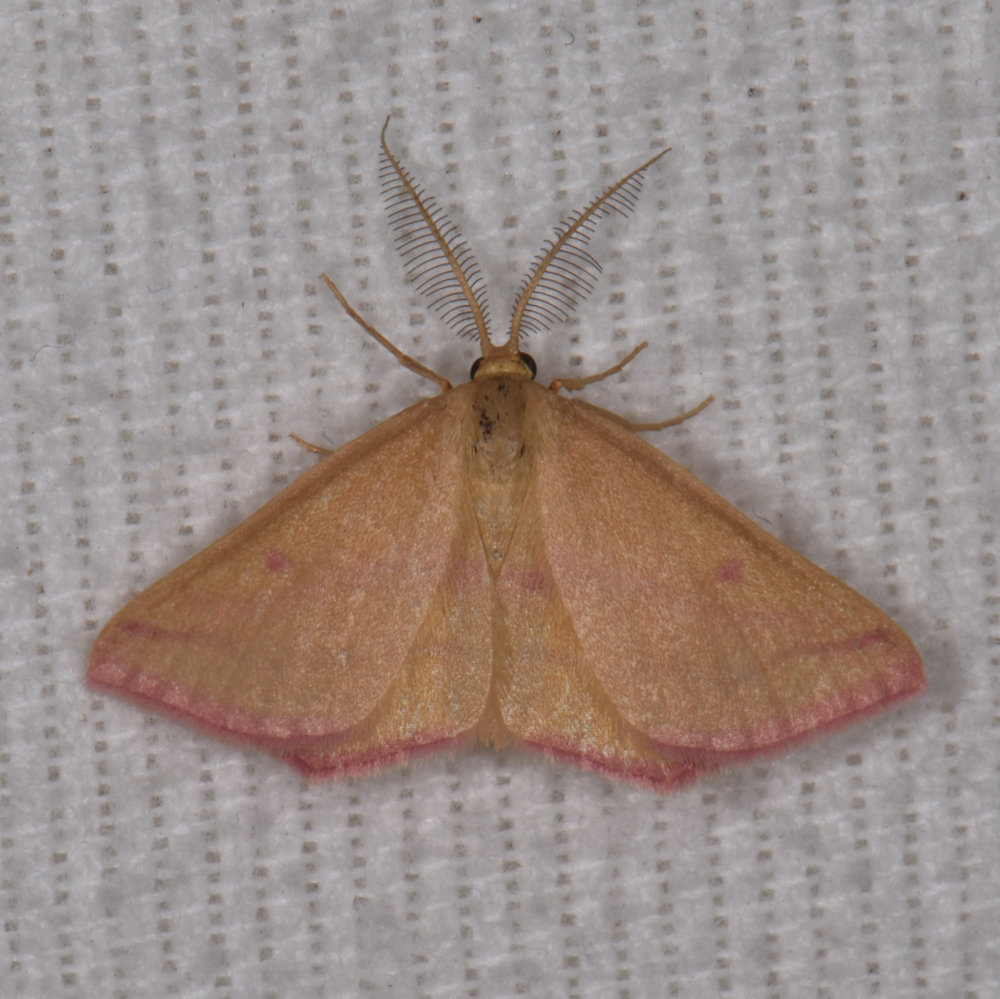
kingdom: Animalia
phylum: Arthropoda
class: Insecta
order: Lepidoptera
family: Geometridae
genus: Haematopis
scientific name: Haematopis grataria
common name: Chickweed geometer
